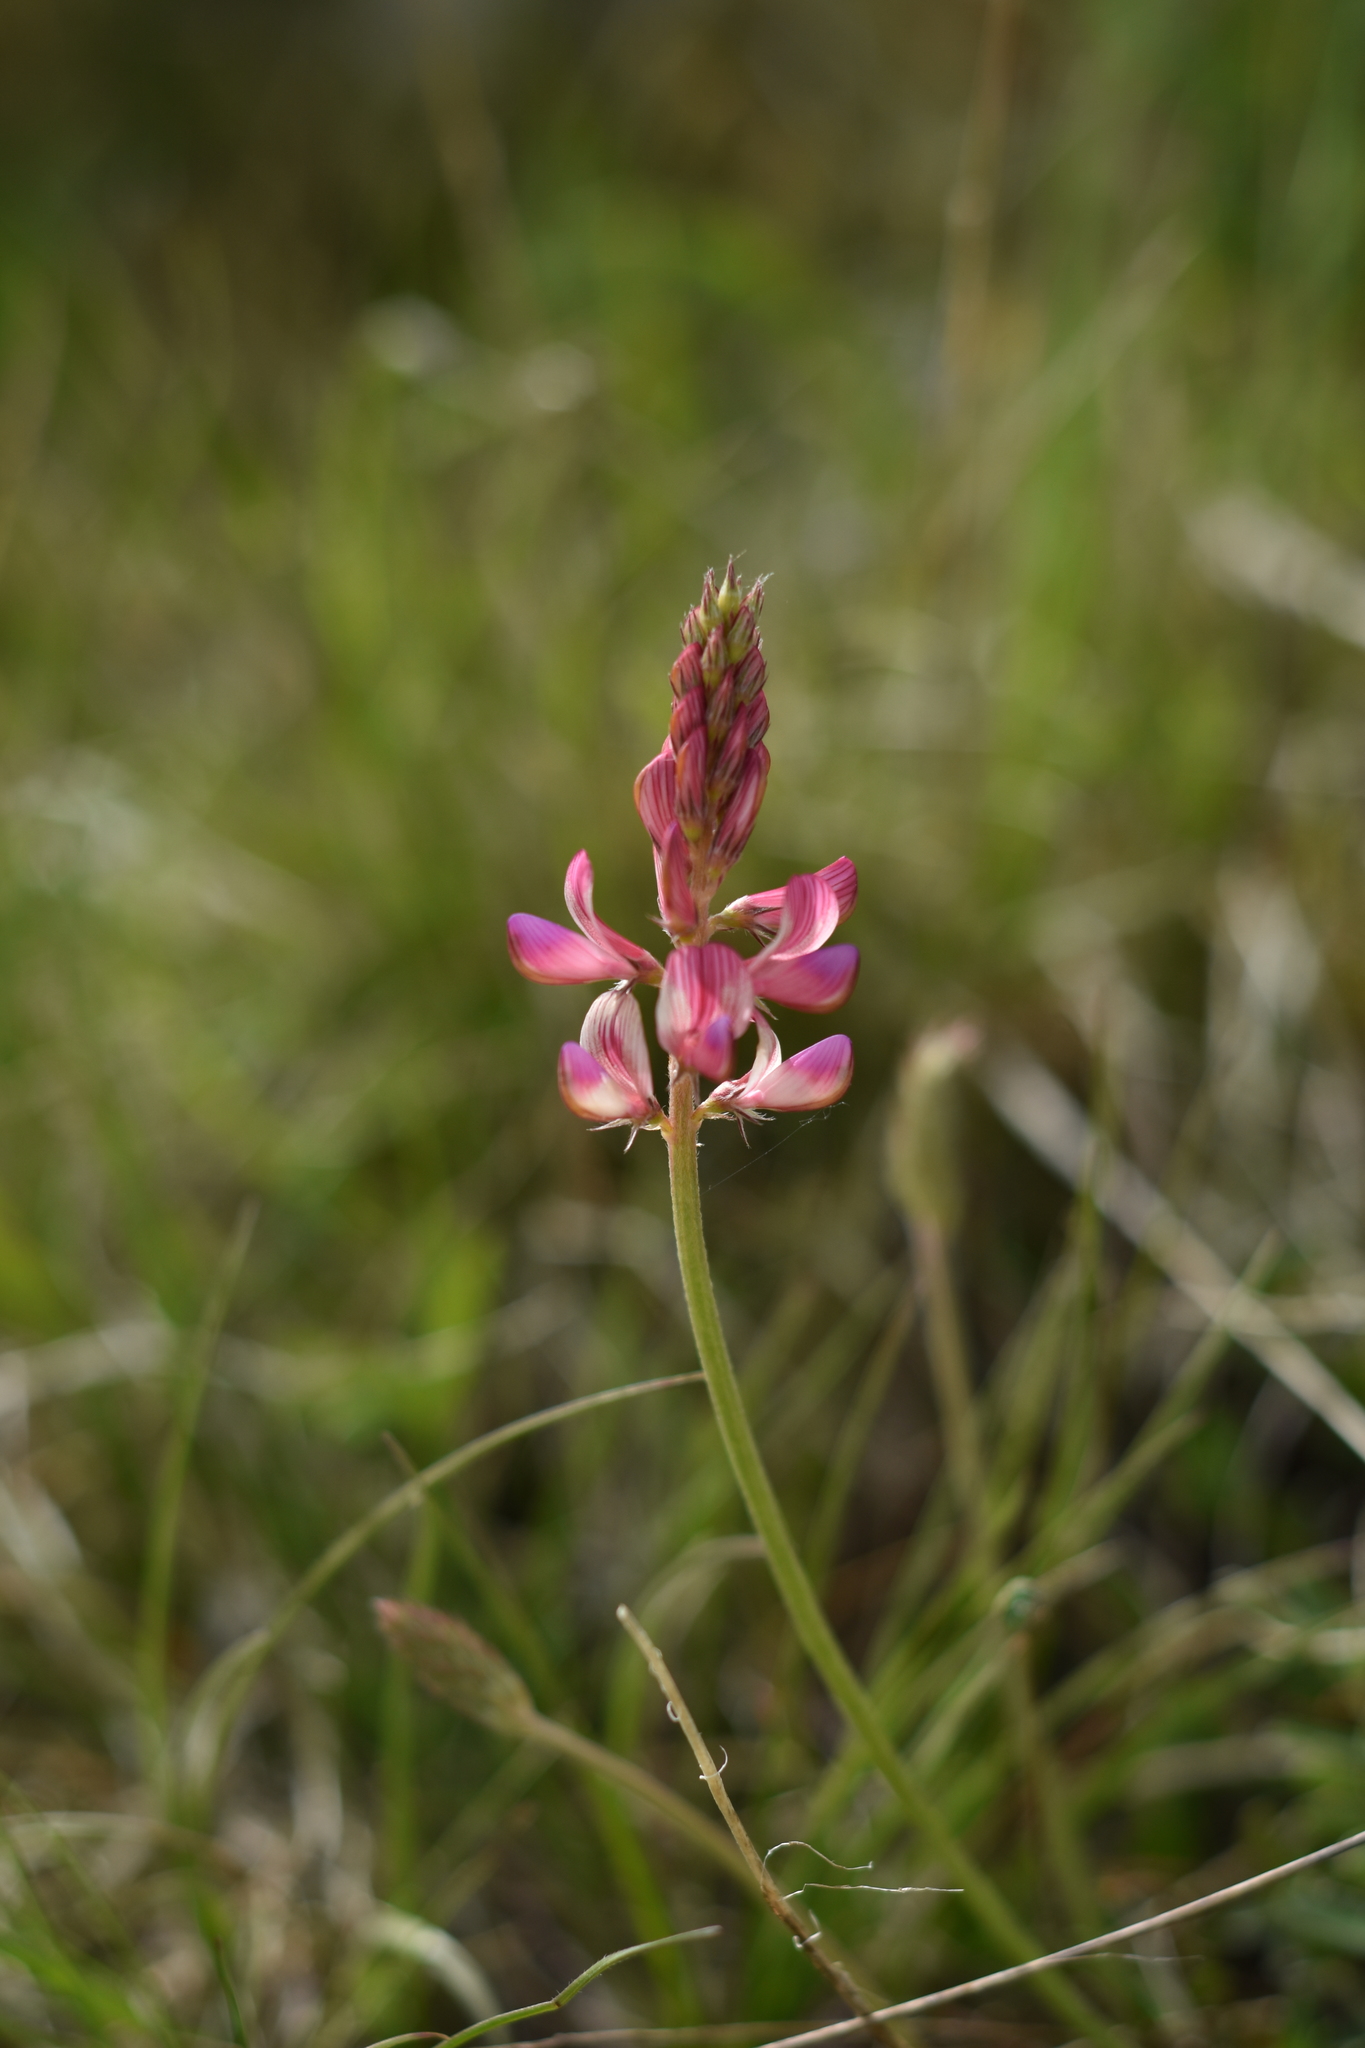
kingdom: Plantae
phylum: Tracheophyta
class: Magnoliopsida
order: Fabales
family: Fabaceae
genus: Onobrychis
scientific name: Onobrychis viciifolia
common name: Sainfoin
